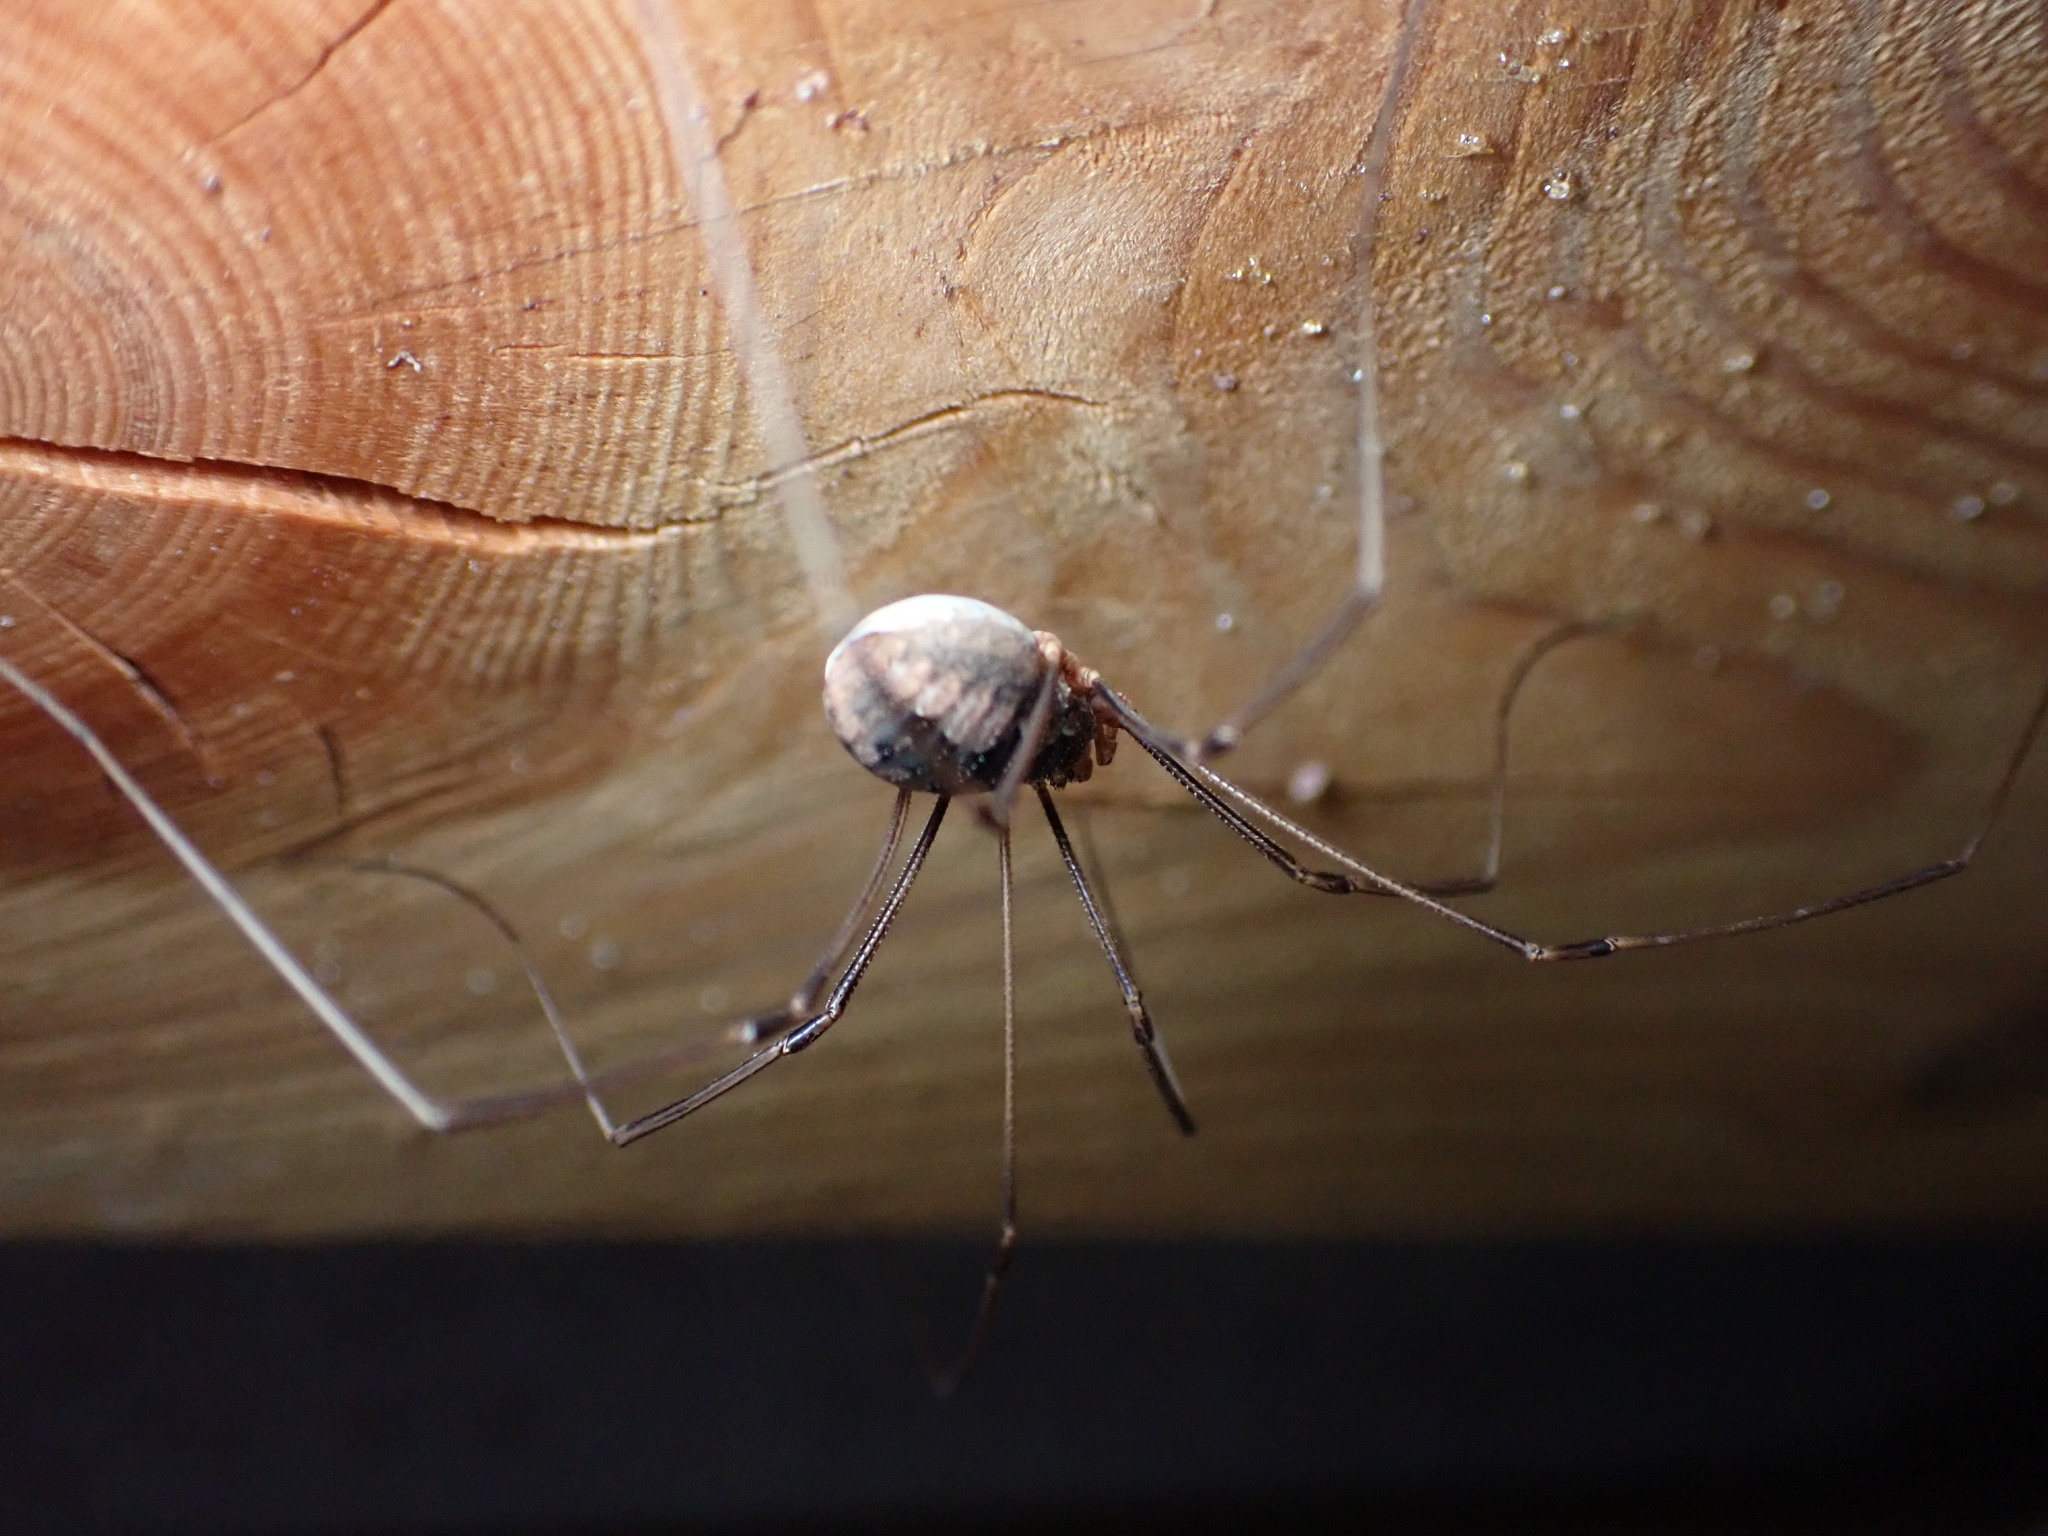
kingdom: Animalia
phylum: Arthropoda
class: Arachnida
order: Opiliones
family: Phalangiidae
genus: Phalangium
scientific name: Phalangium opilio
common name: Daddy longleg
